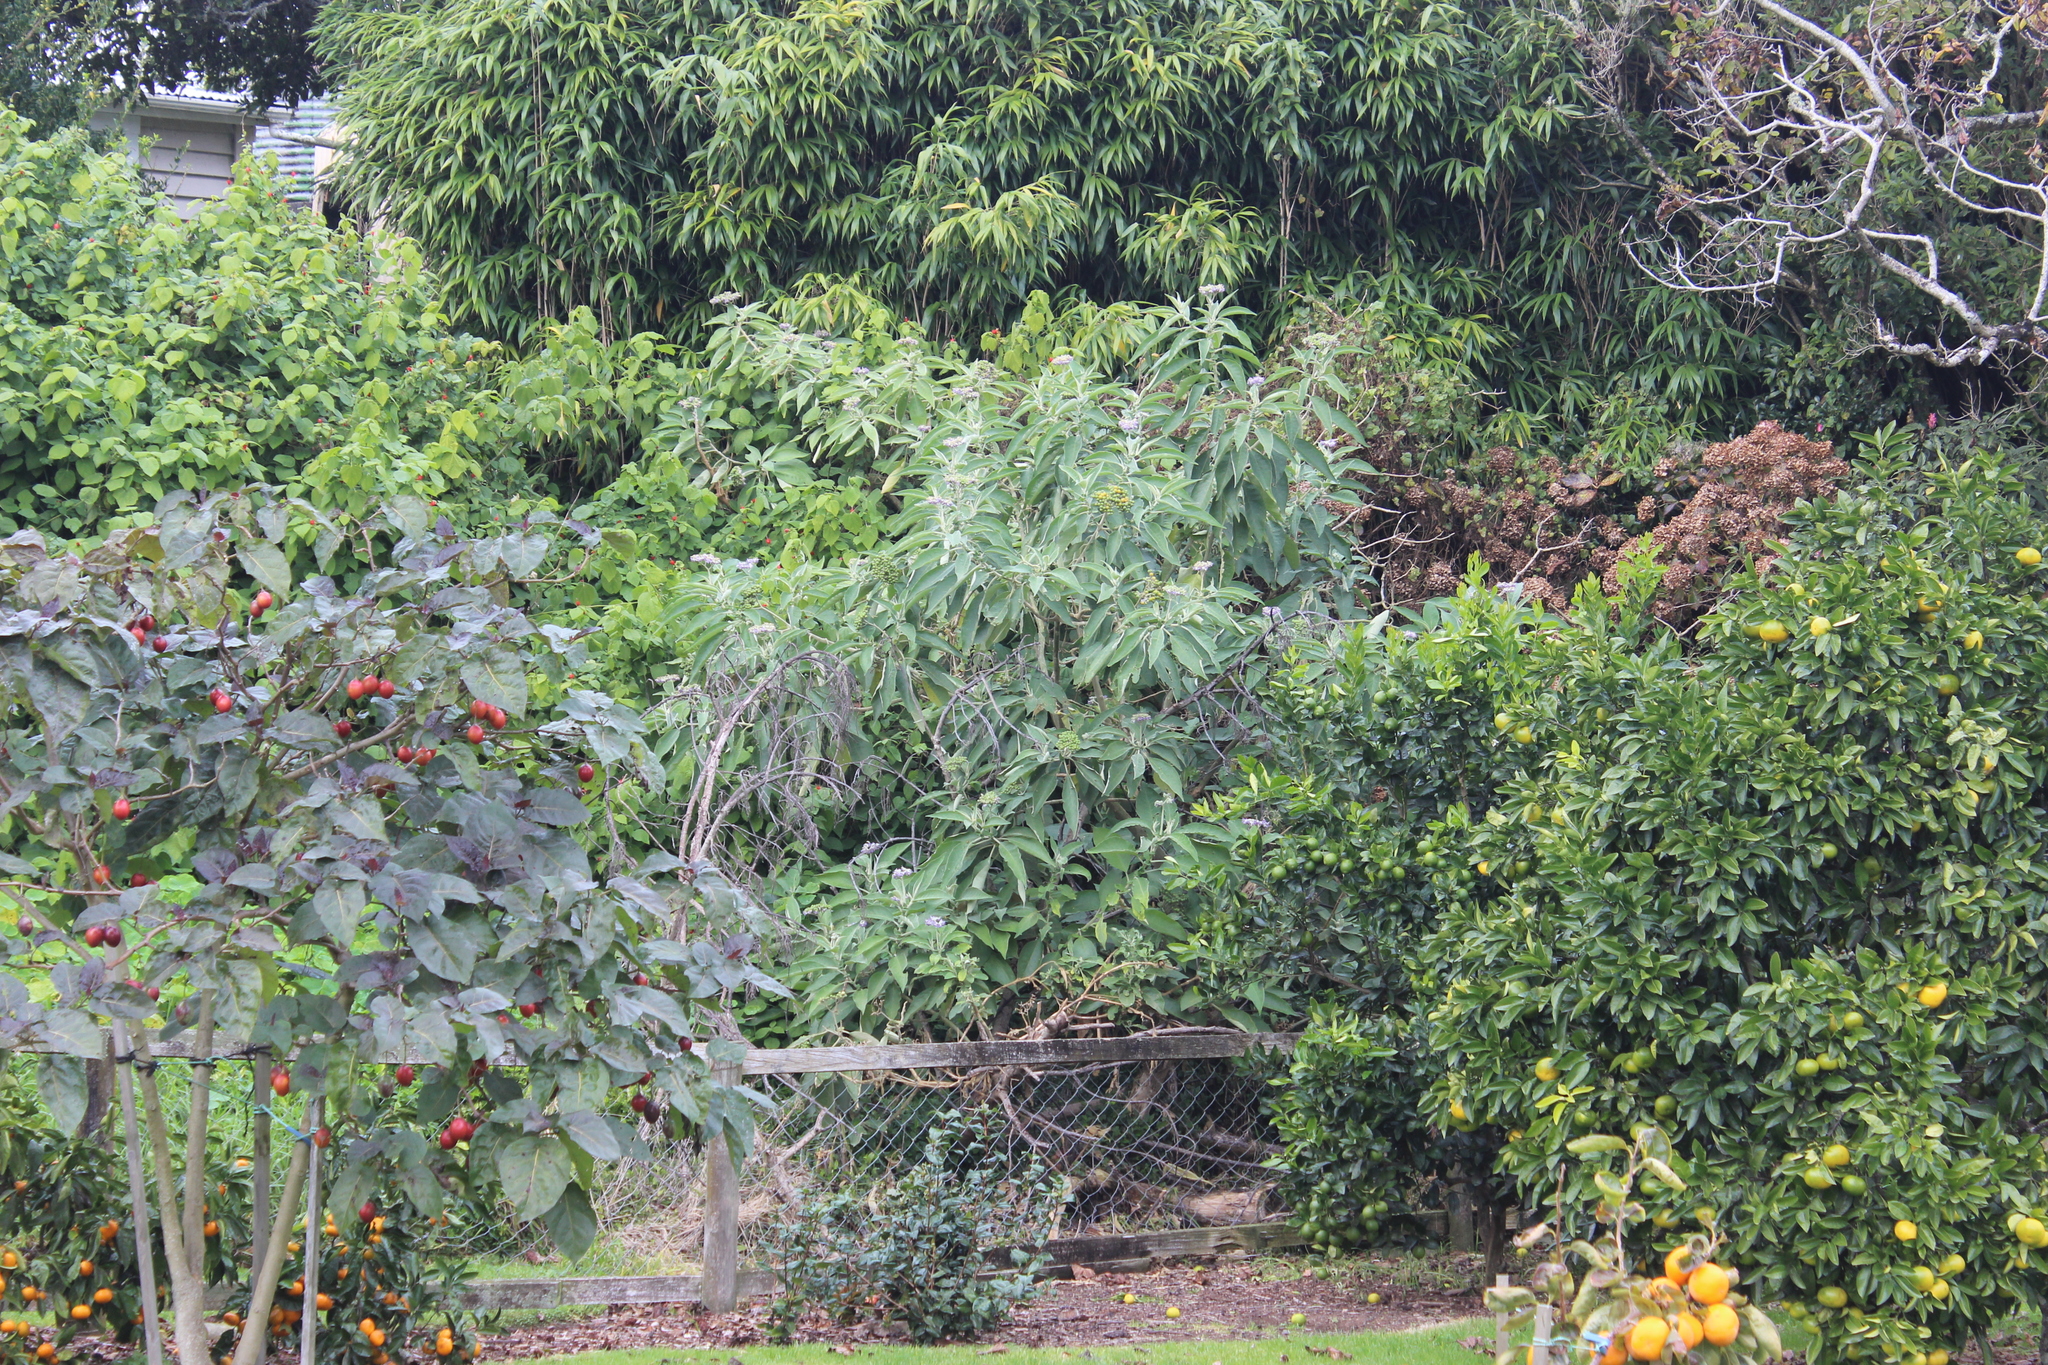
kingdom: Plantae
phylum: Tracheophyta
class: Magnoliopsida
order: Solanales
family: Solanaceae
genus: Solanum
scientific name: Solanum mauritianum
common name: Earleaf nightshade
